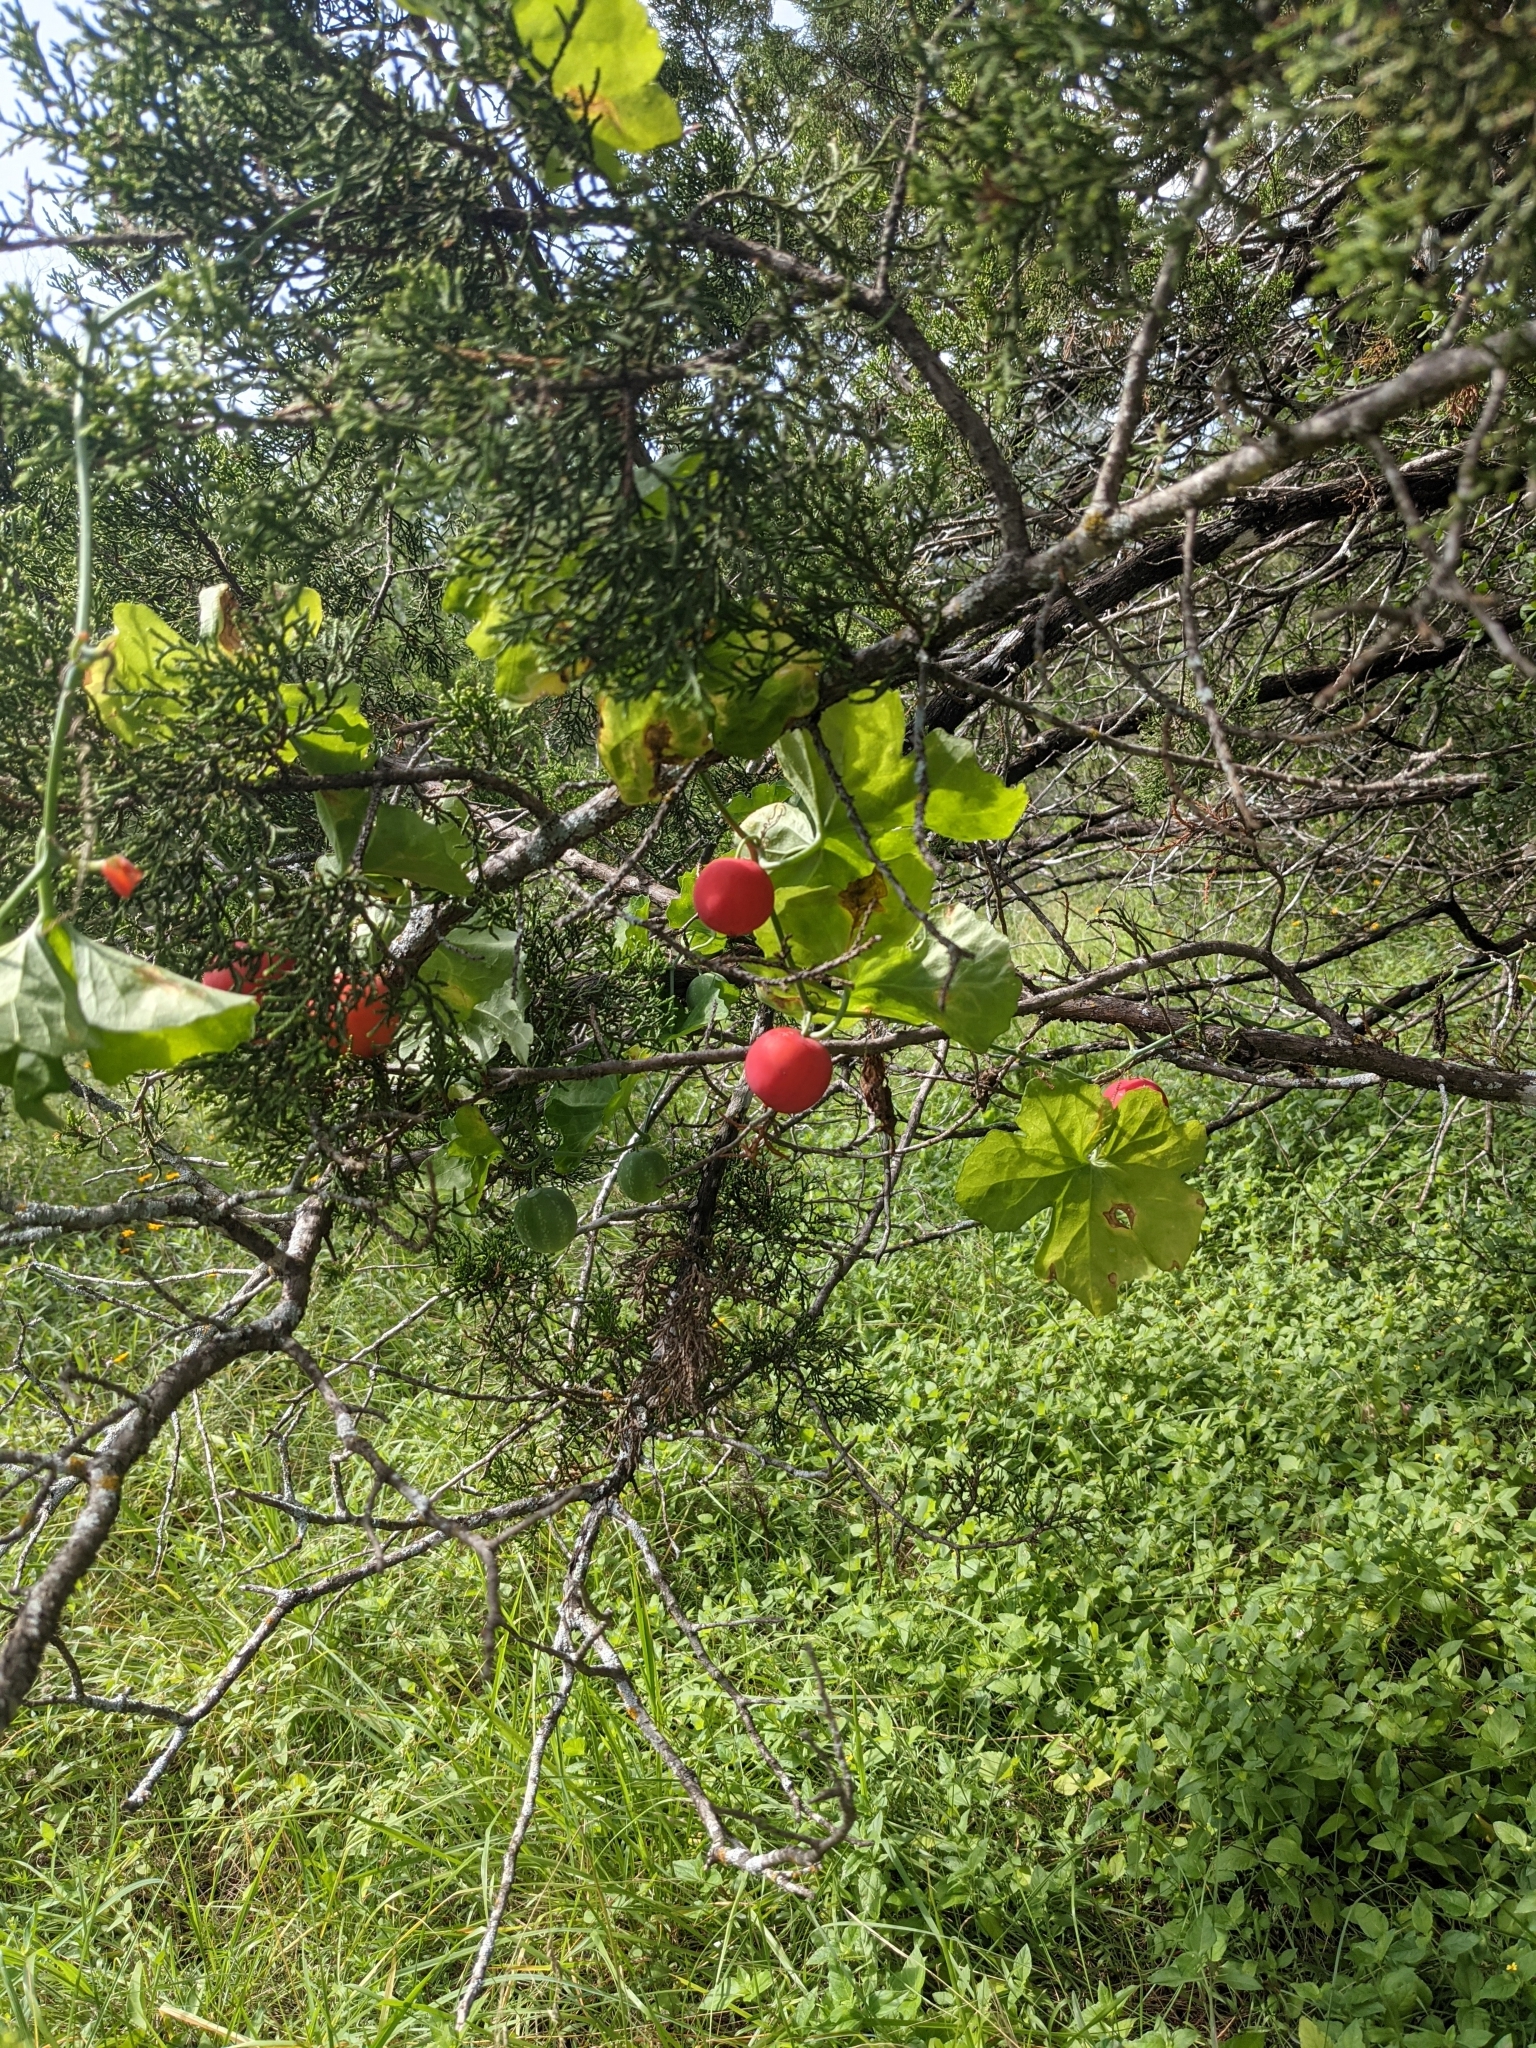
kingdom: Plantae
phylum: Tracheophyta
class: Magnoliopsida
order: Cucurbitales
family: Cucurbitaceae
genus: Ibervillea
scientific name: Ibervillea lindheimeri
